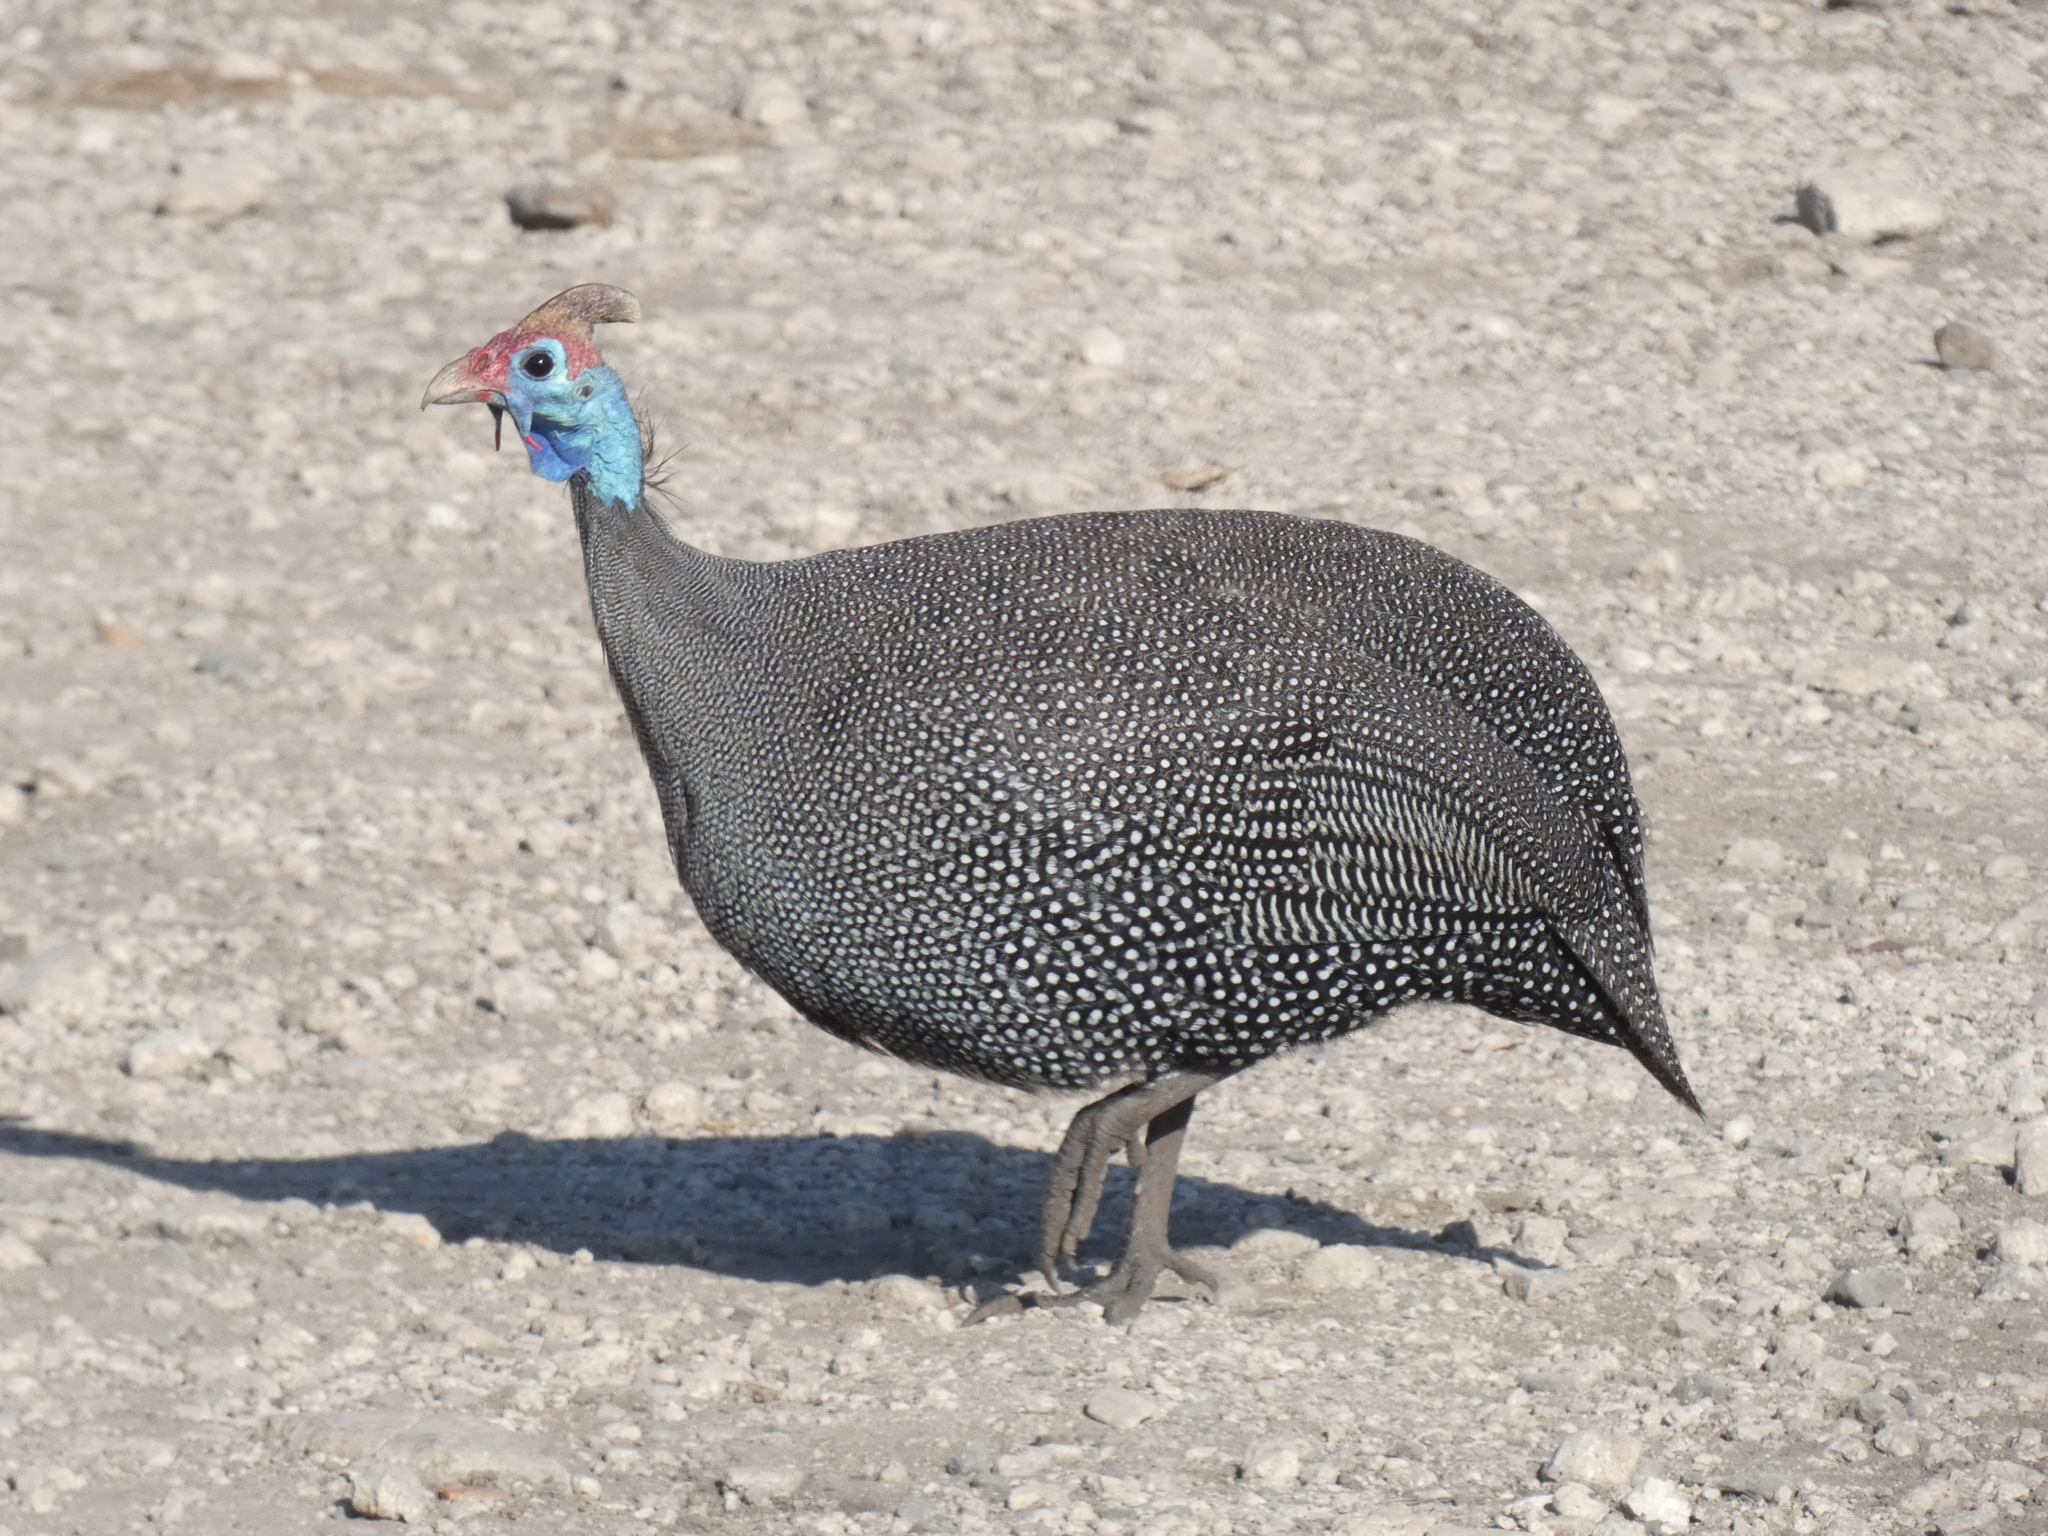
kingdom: Animalia
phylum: Chordata
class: Aves
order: Galliformes
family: Numididae
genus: Numida
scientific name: Numida meleagris
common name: Helmeted guineafowl
